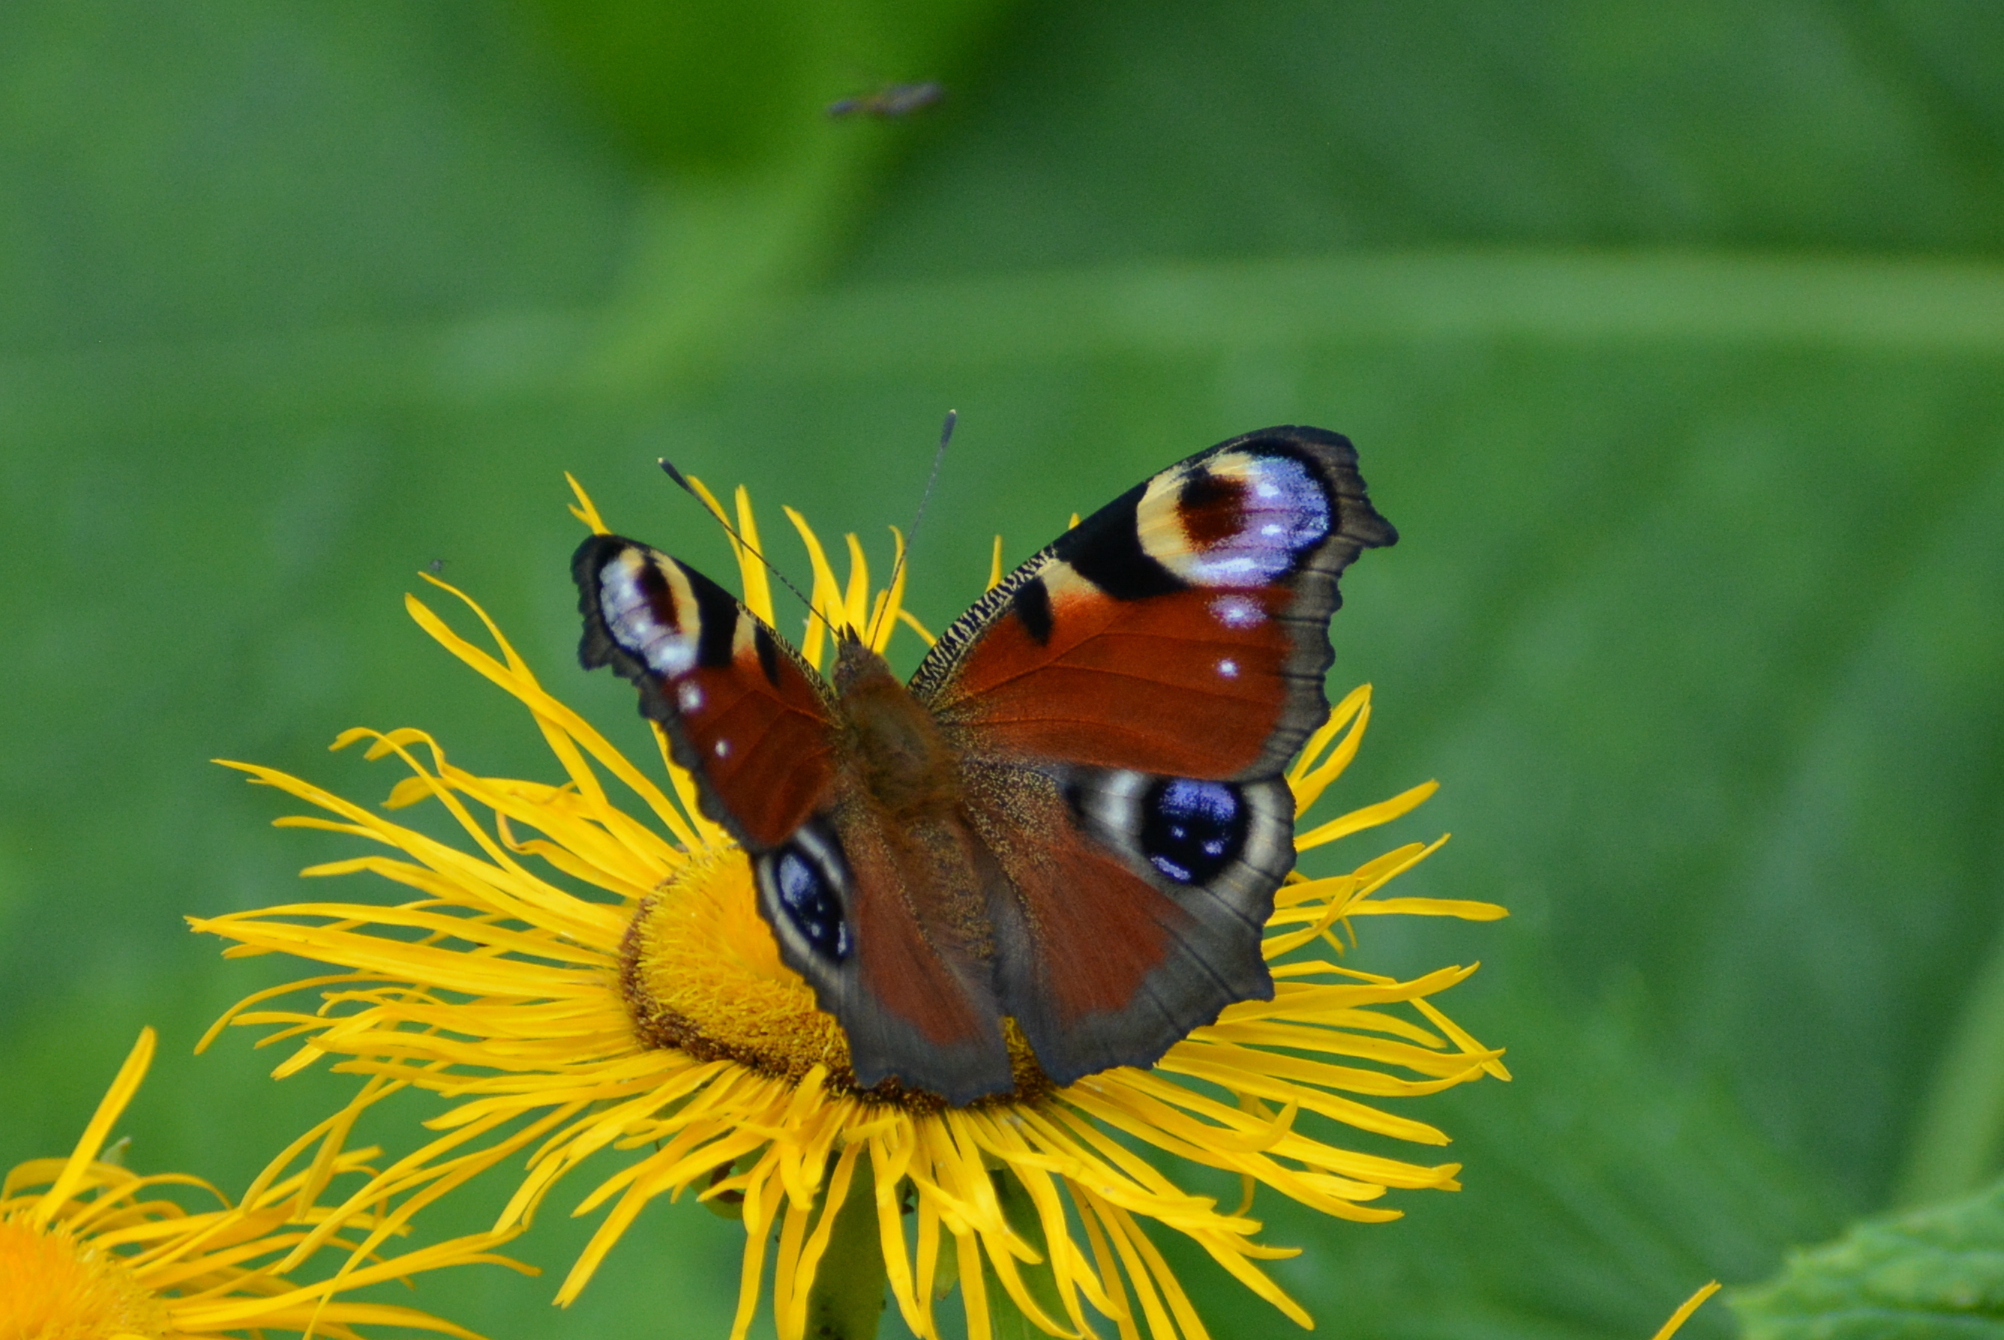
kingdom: Animalia
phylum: Arthropoda
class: Insecta
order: Lepidoptera
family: Nymphalidae
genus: Aglais
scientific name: Aglais io
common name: Peacock
